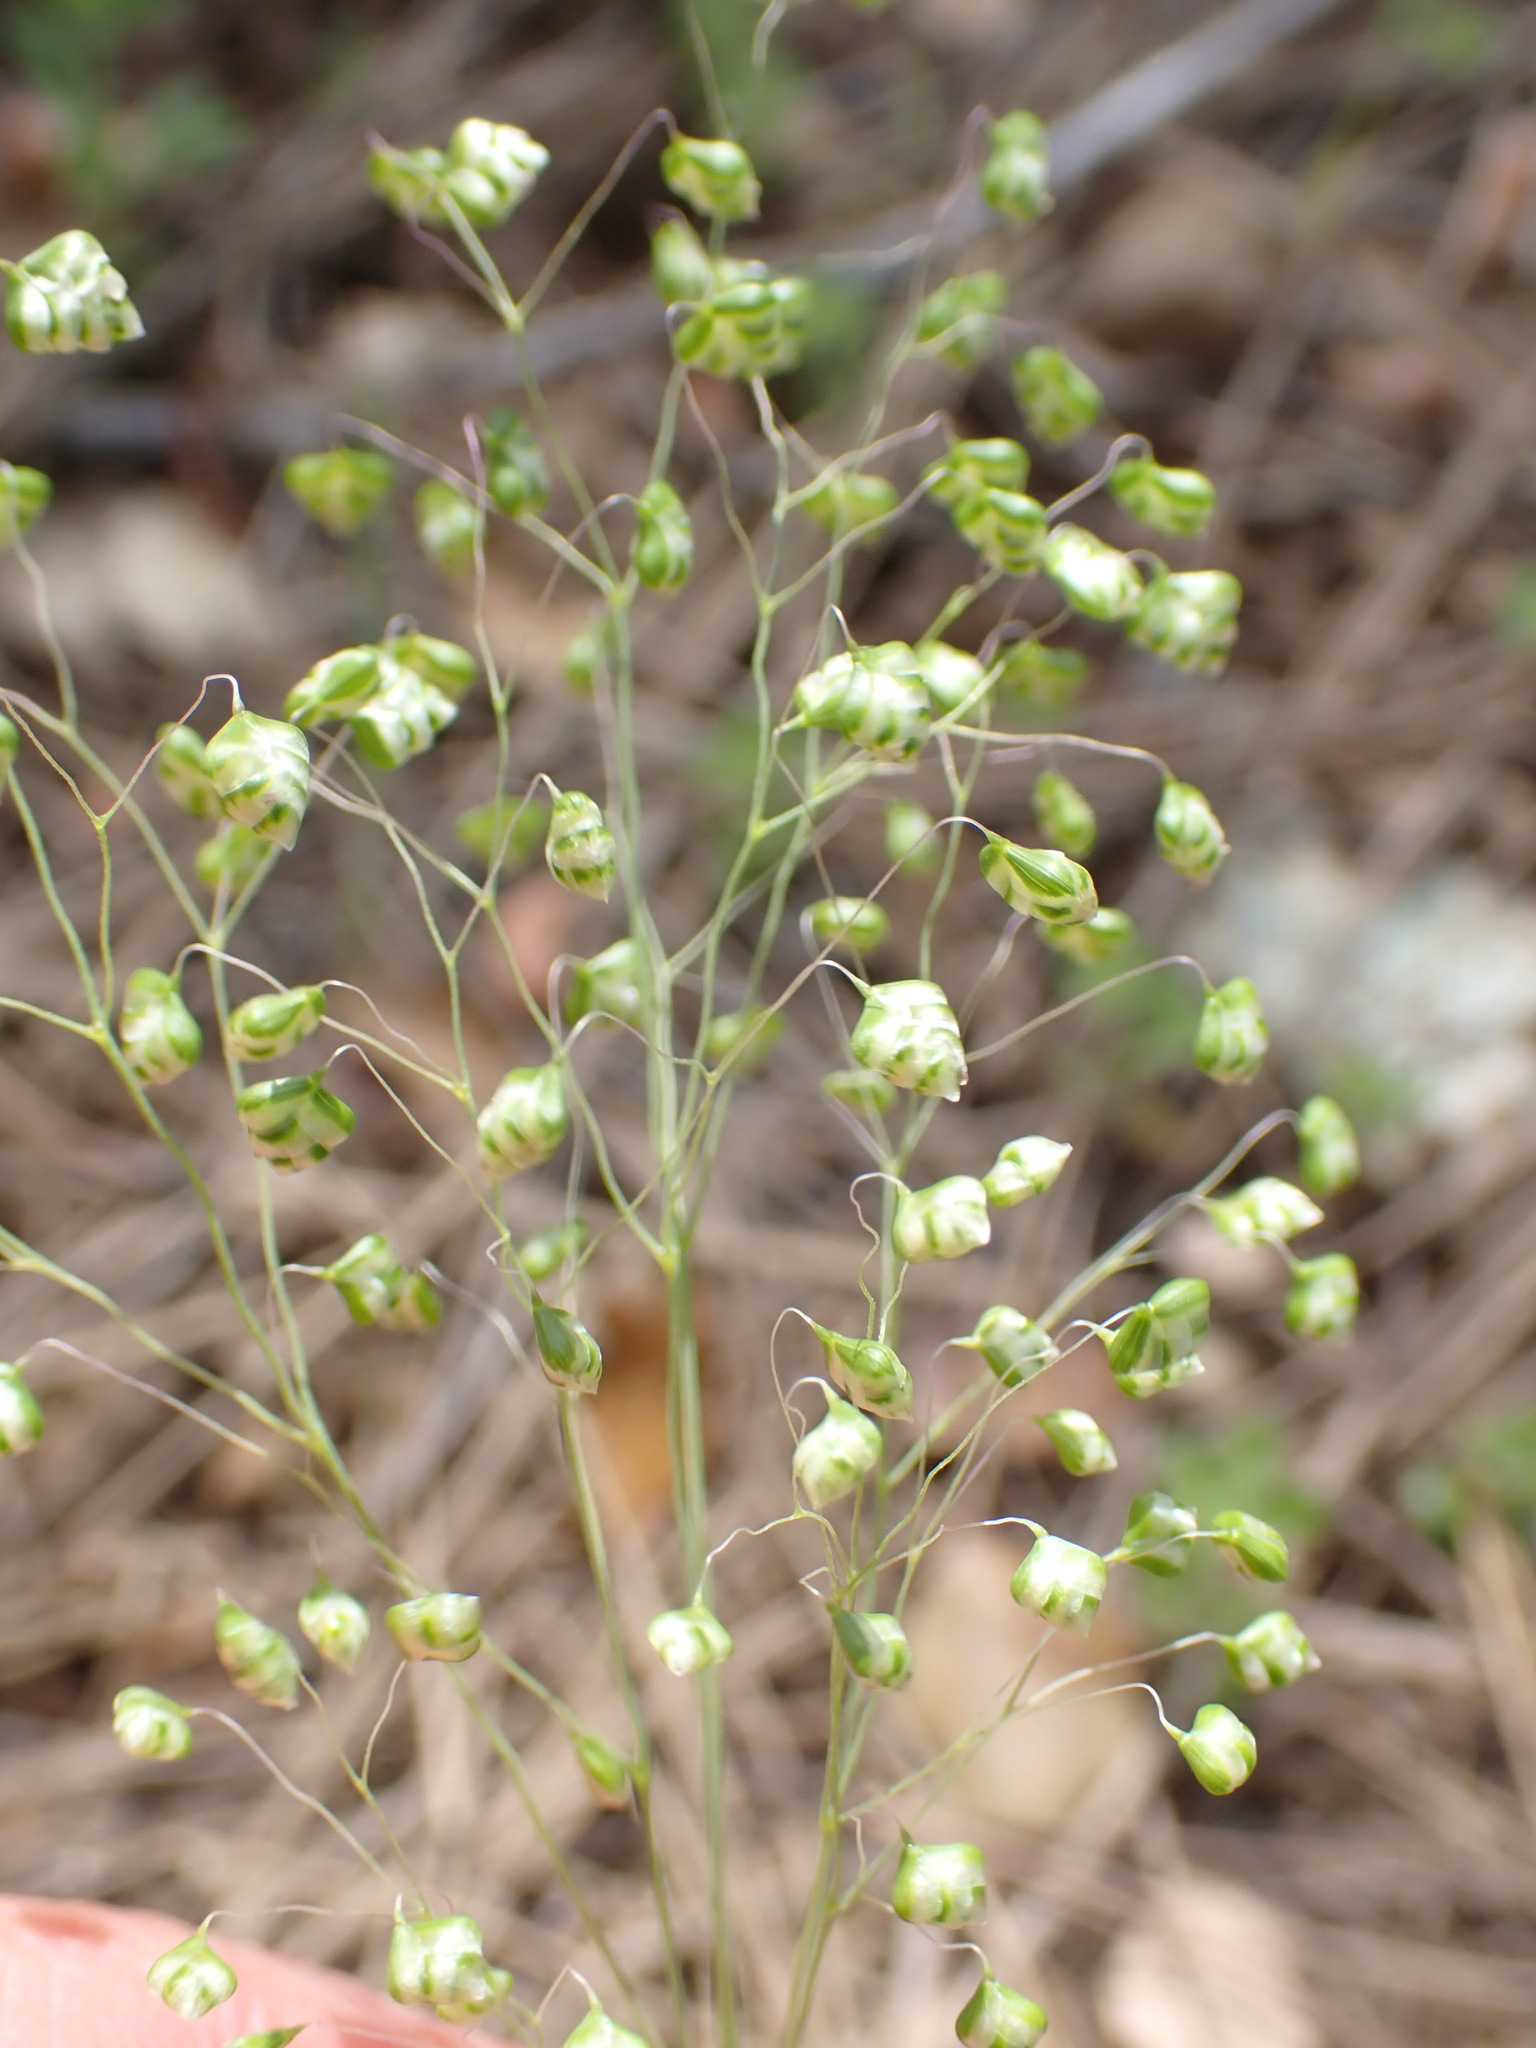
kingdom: Plantae
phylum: Tracheophyta
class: Liliopsida
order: Poales
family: Poaceae
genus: Briza
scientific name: Briza minor
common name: Lesser quaking-grass
